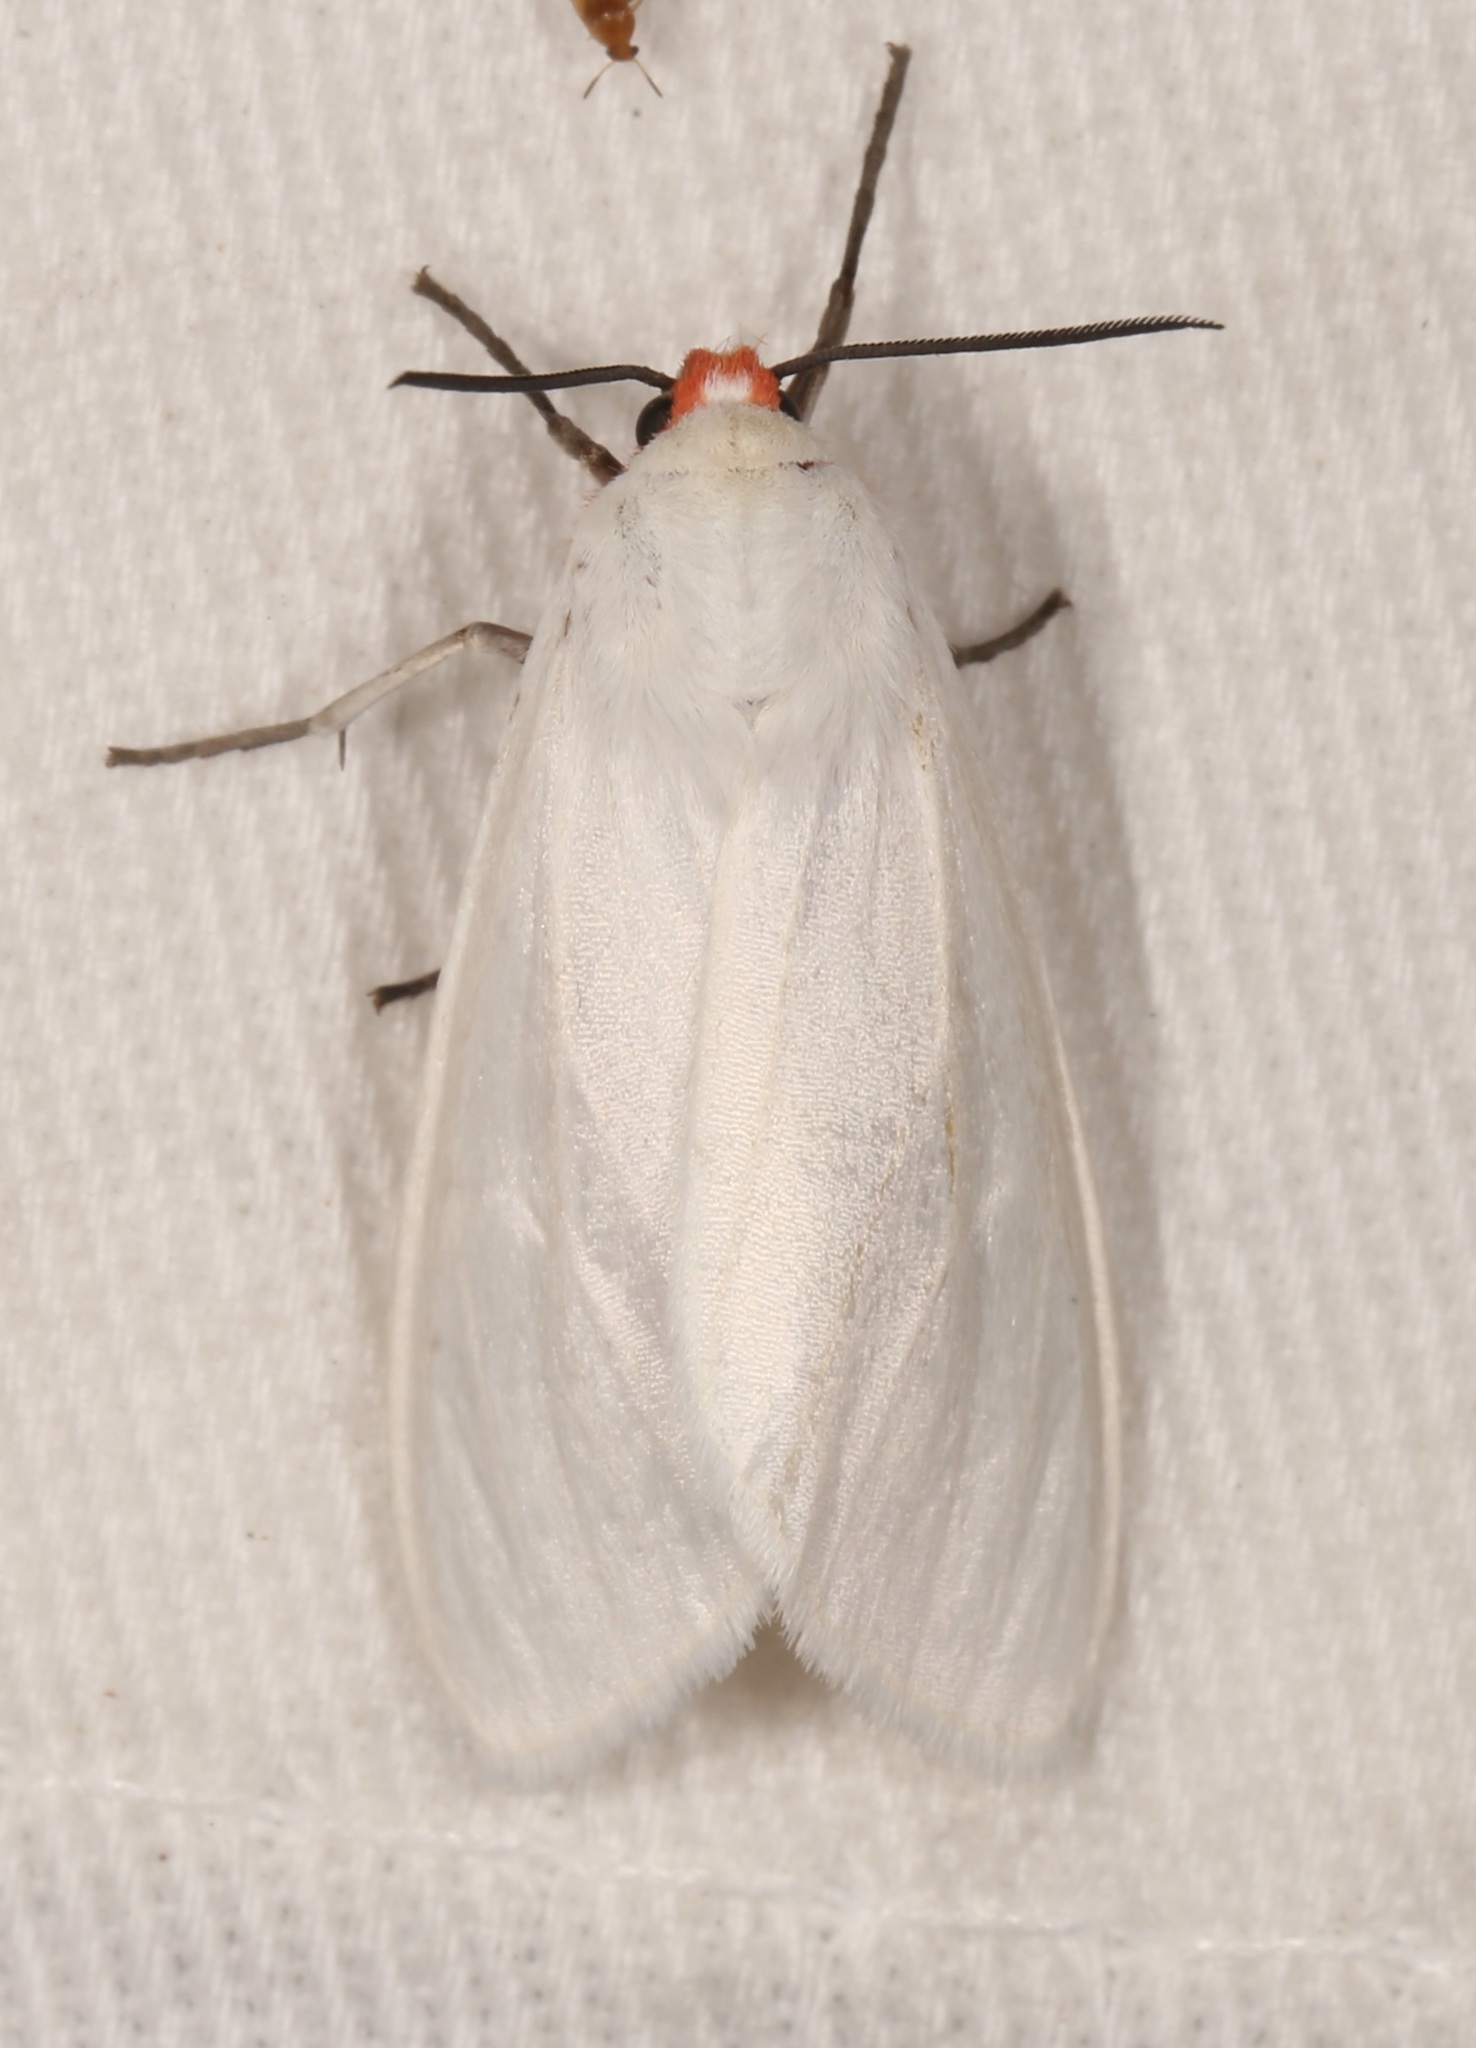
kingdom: Animalia
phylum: Arthropoda
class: Insecta
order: Lepidoptera
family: Erebidae
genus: Pygarctia
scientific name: Pygarctia roseicapitis
